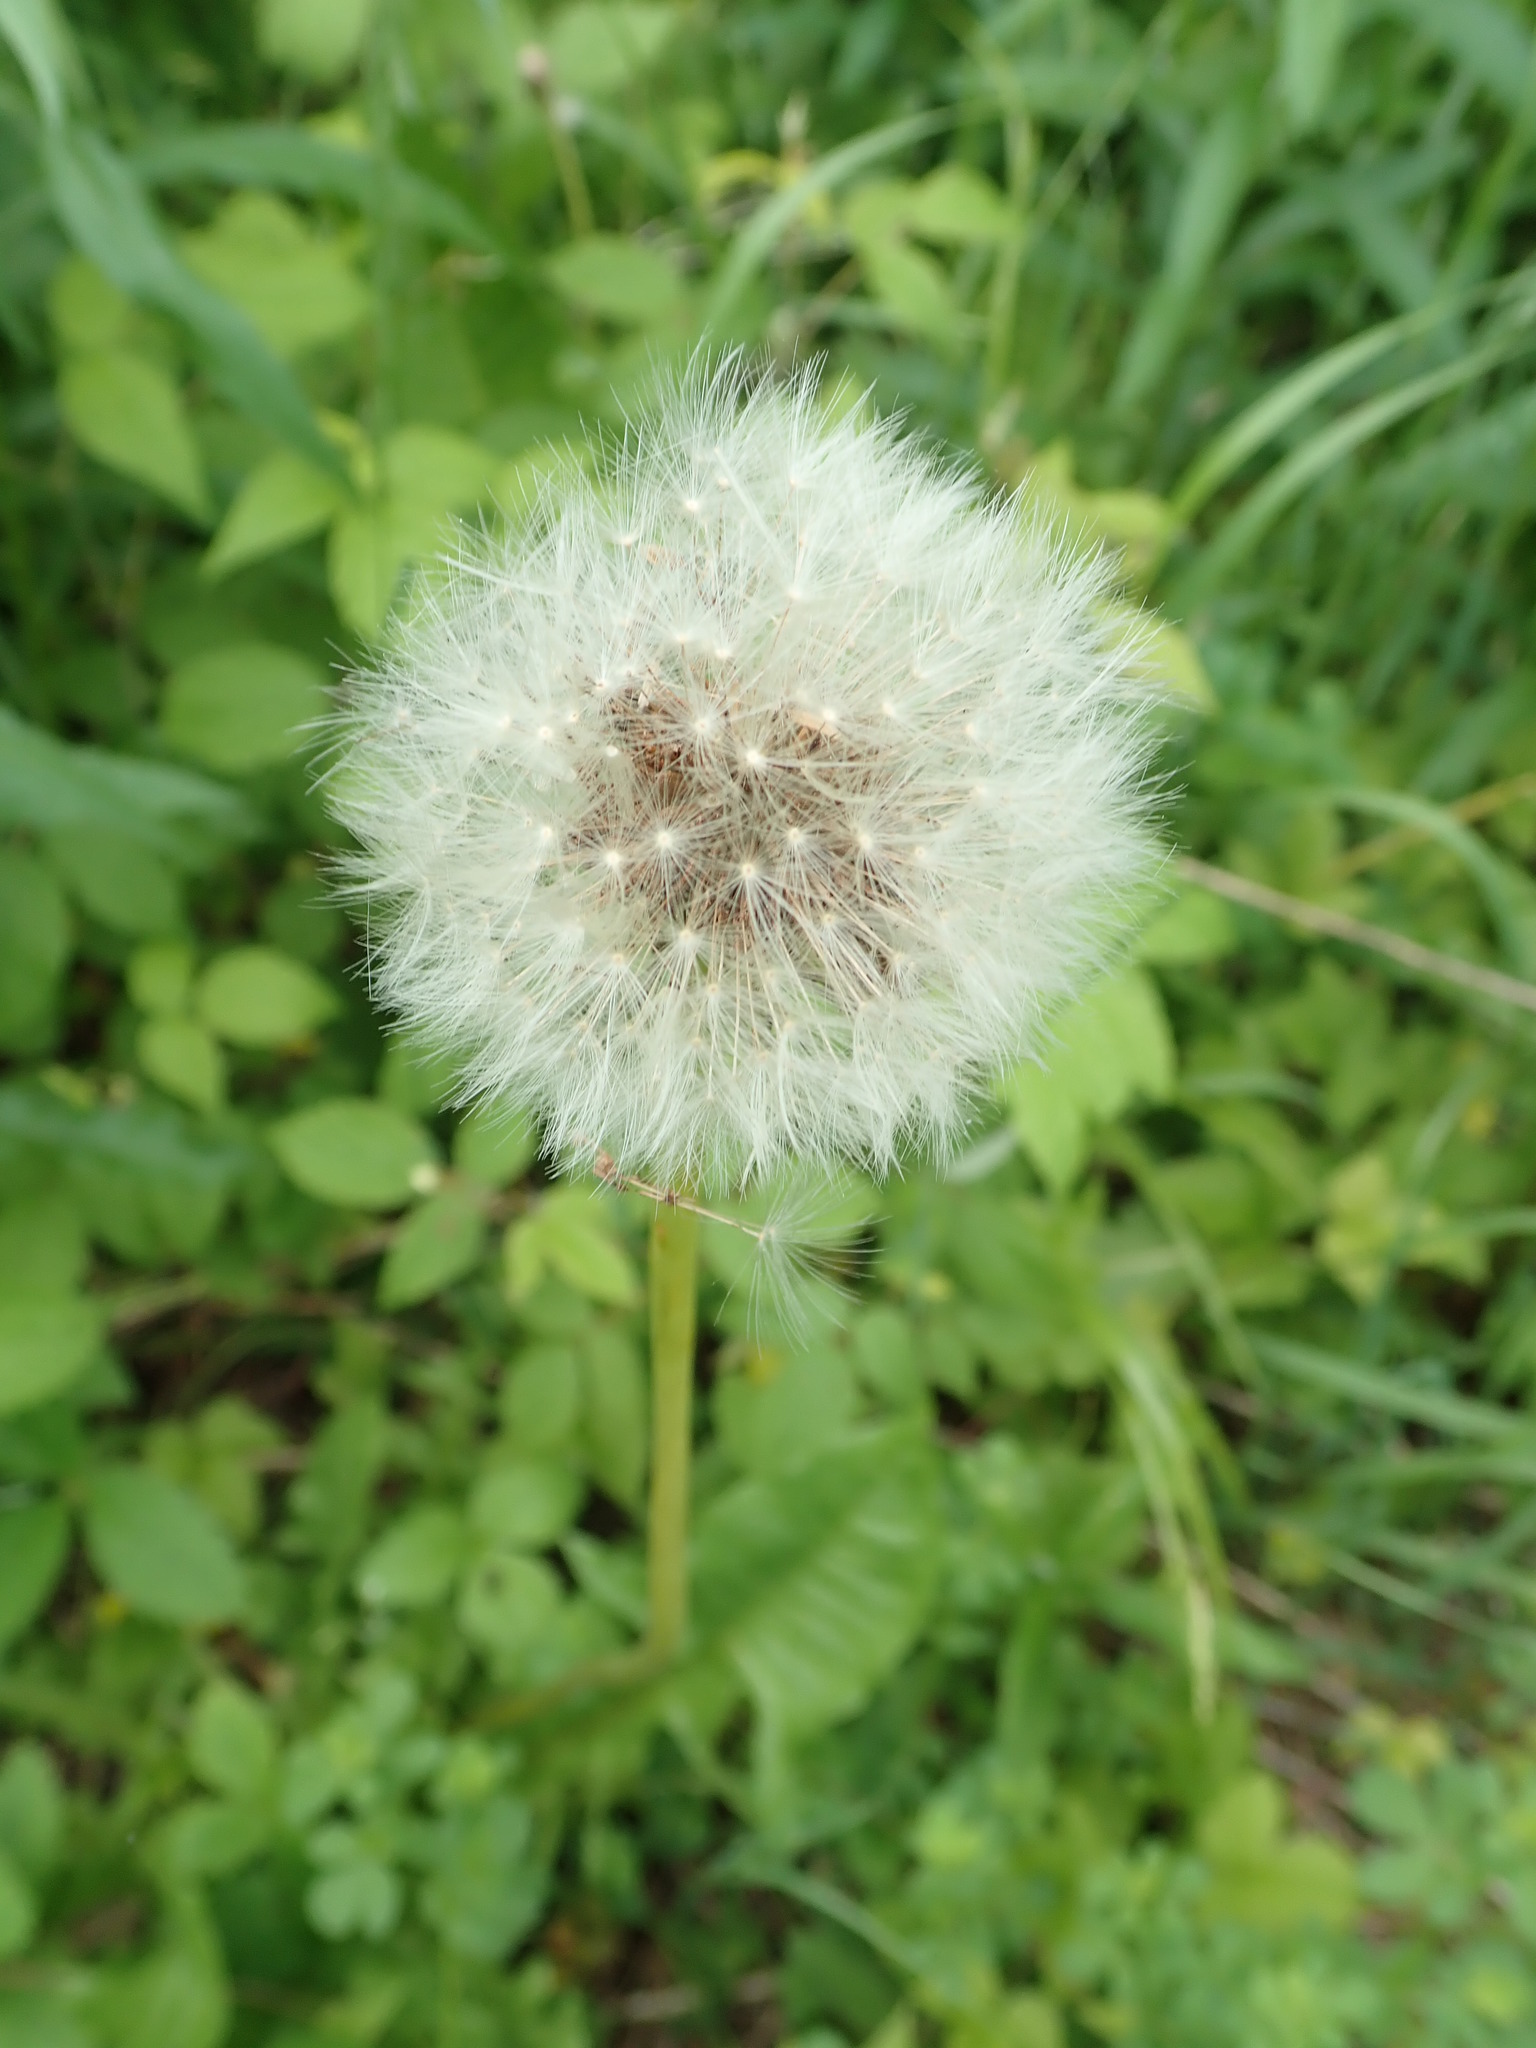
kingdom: Plantae
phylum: Tracheophyta
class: Magnoliopsida
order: Asterales
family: Asteraceae
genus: Taraxacum
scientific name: Taraxacum officinale
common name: Common dandelion
